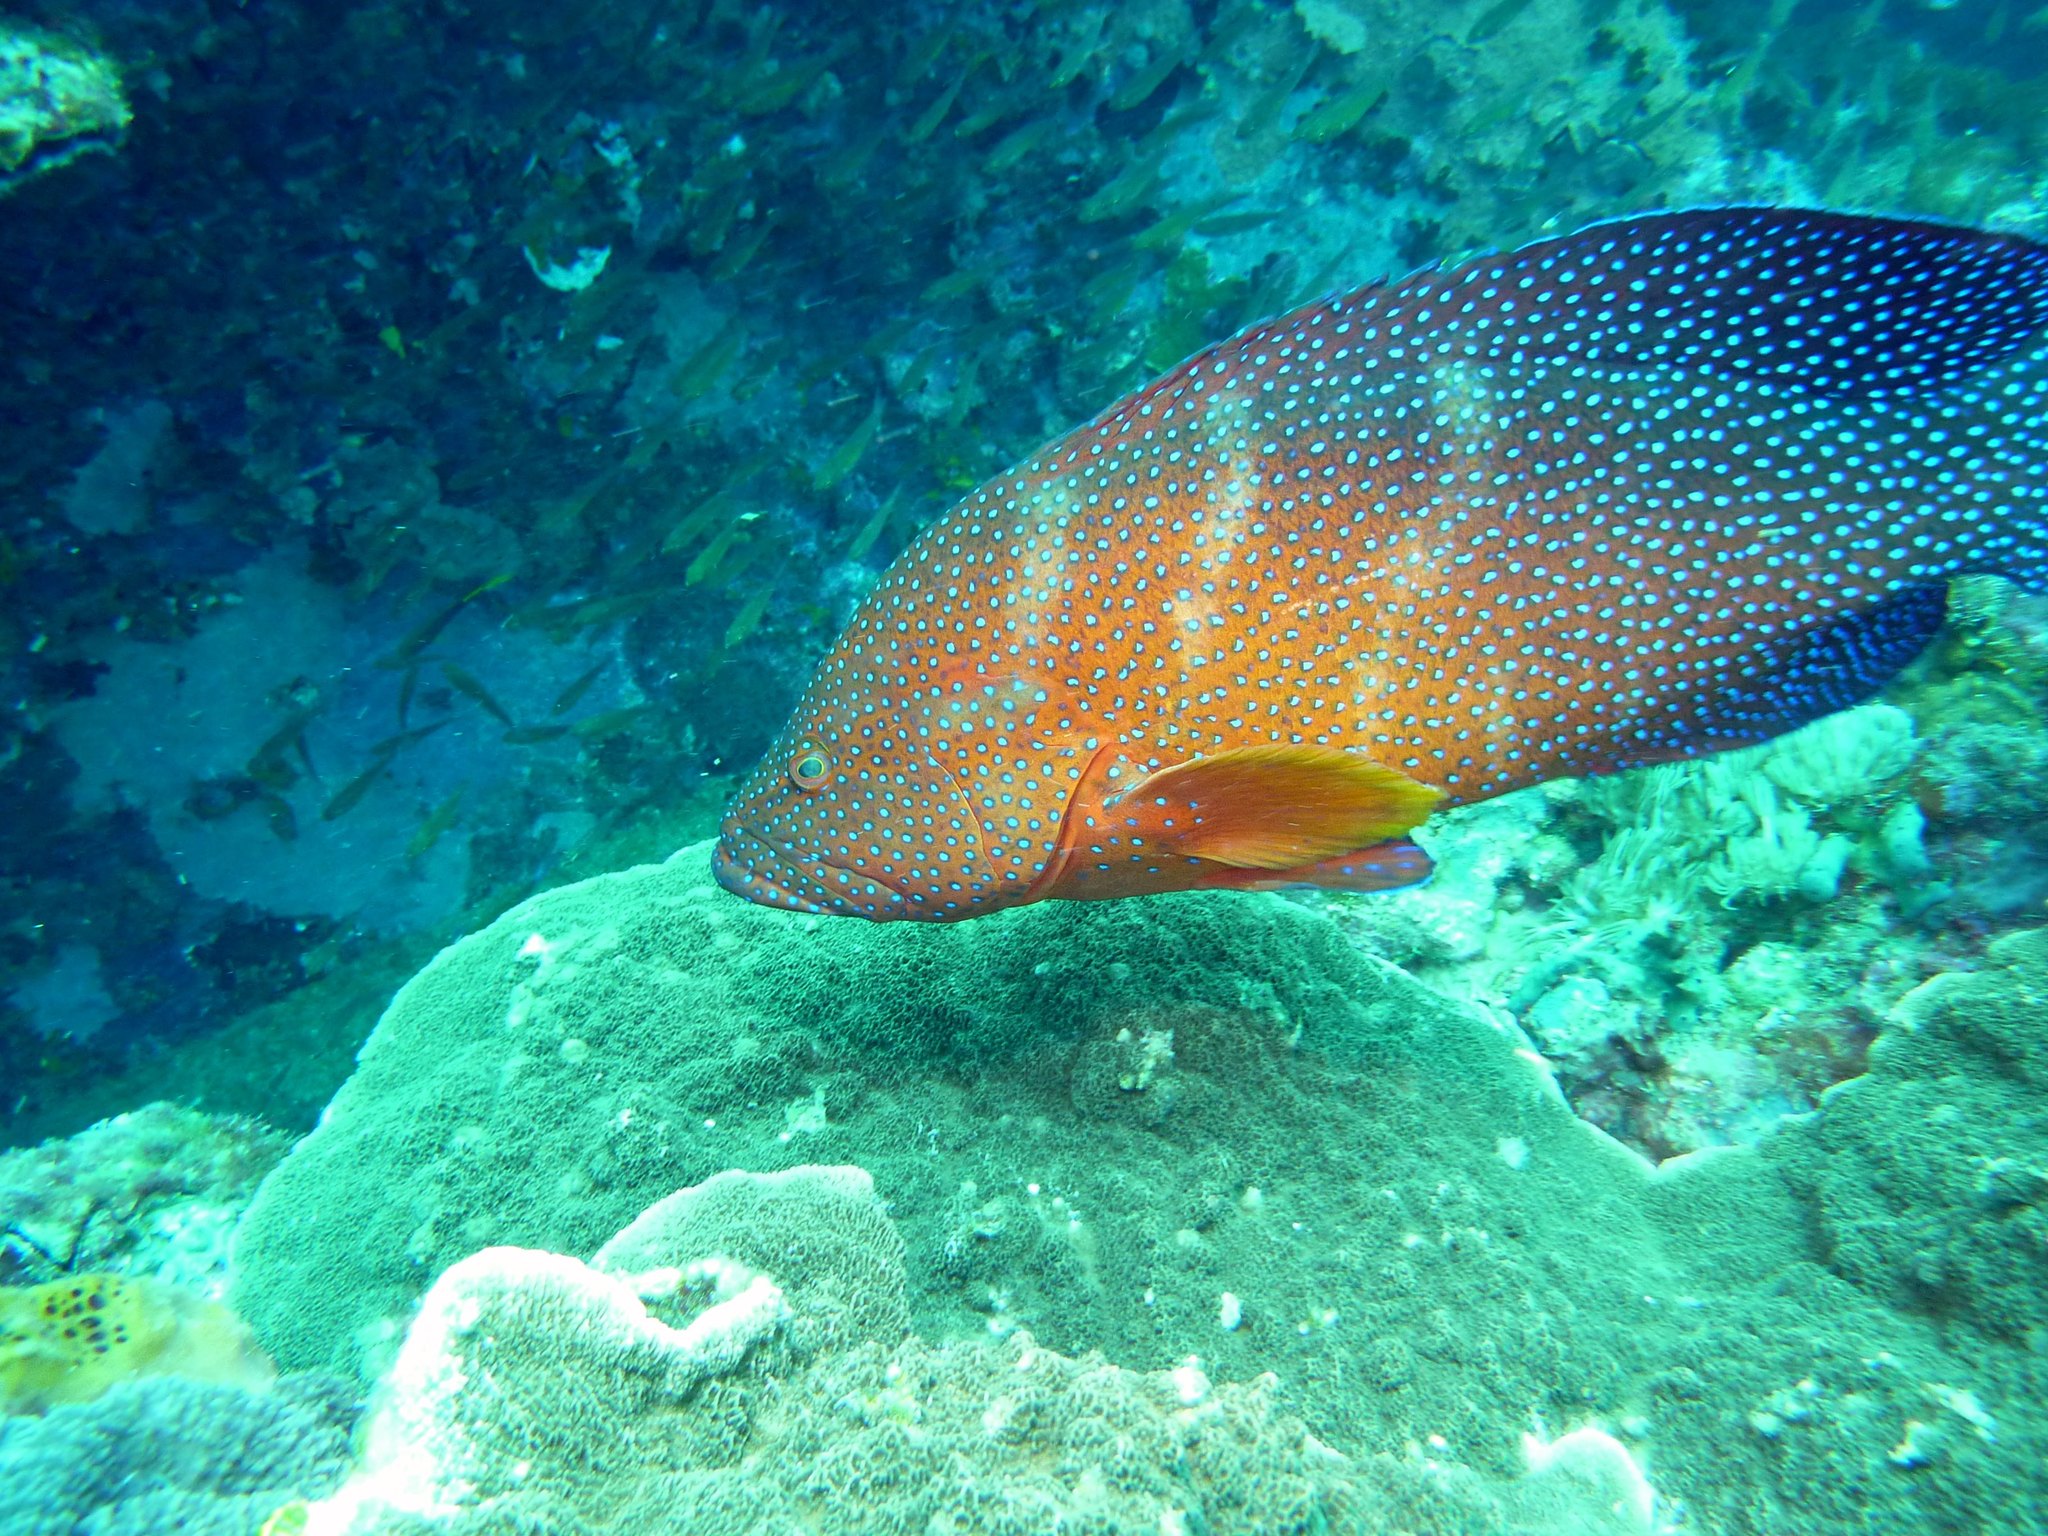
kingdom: Animalia
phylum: Chordata
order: Perciformes
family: Serranidae
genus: Cephalopholis
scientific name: Cephalopholis miniata
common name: Coral hind
